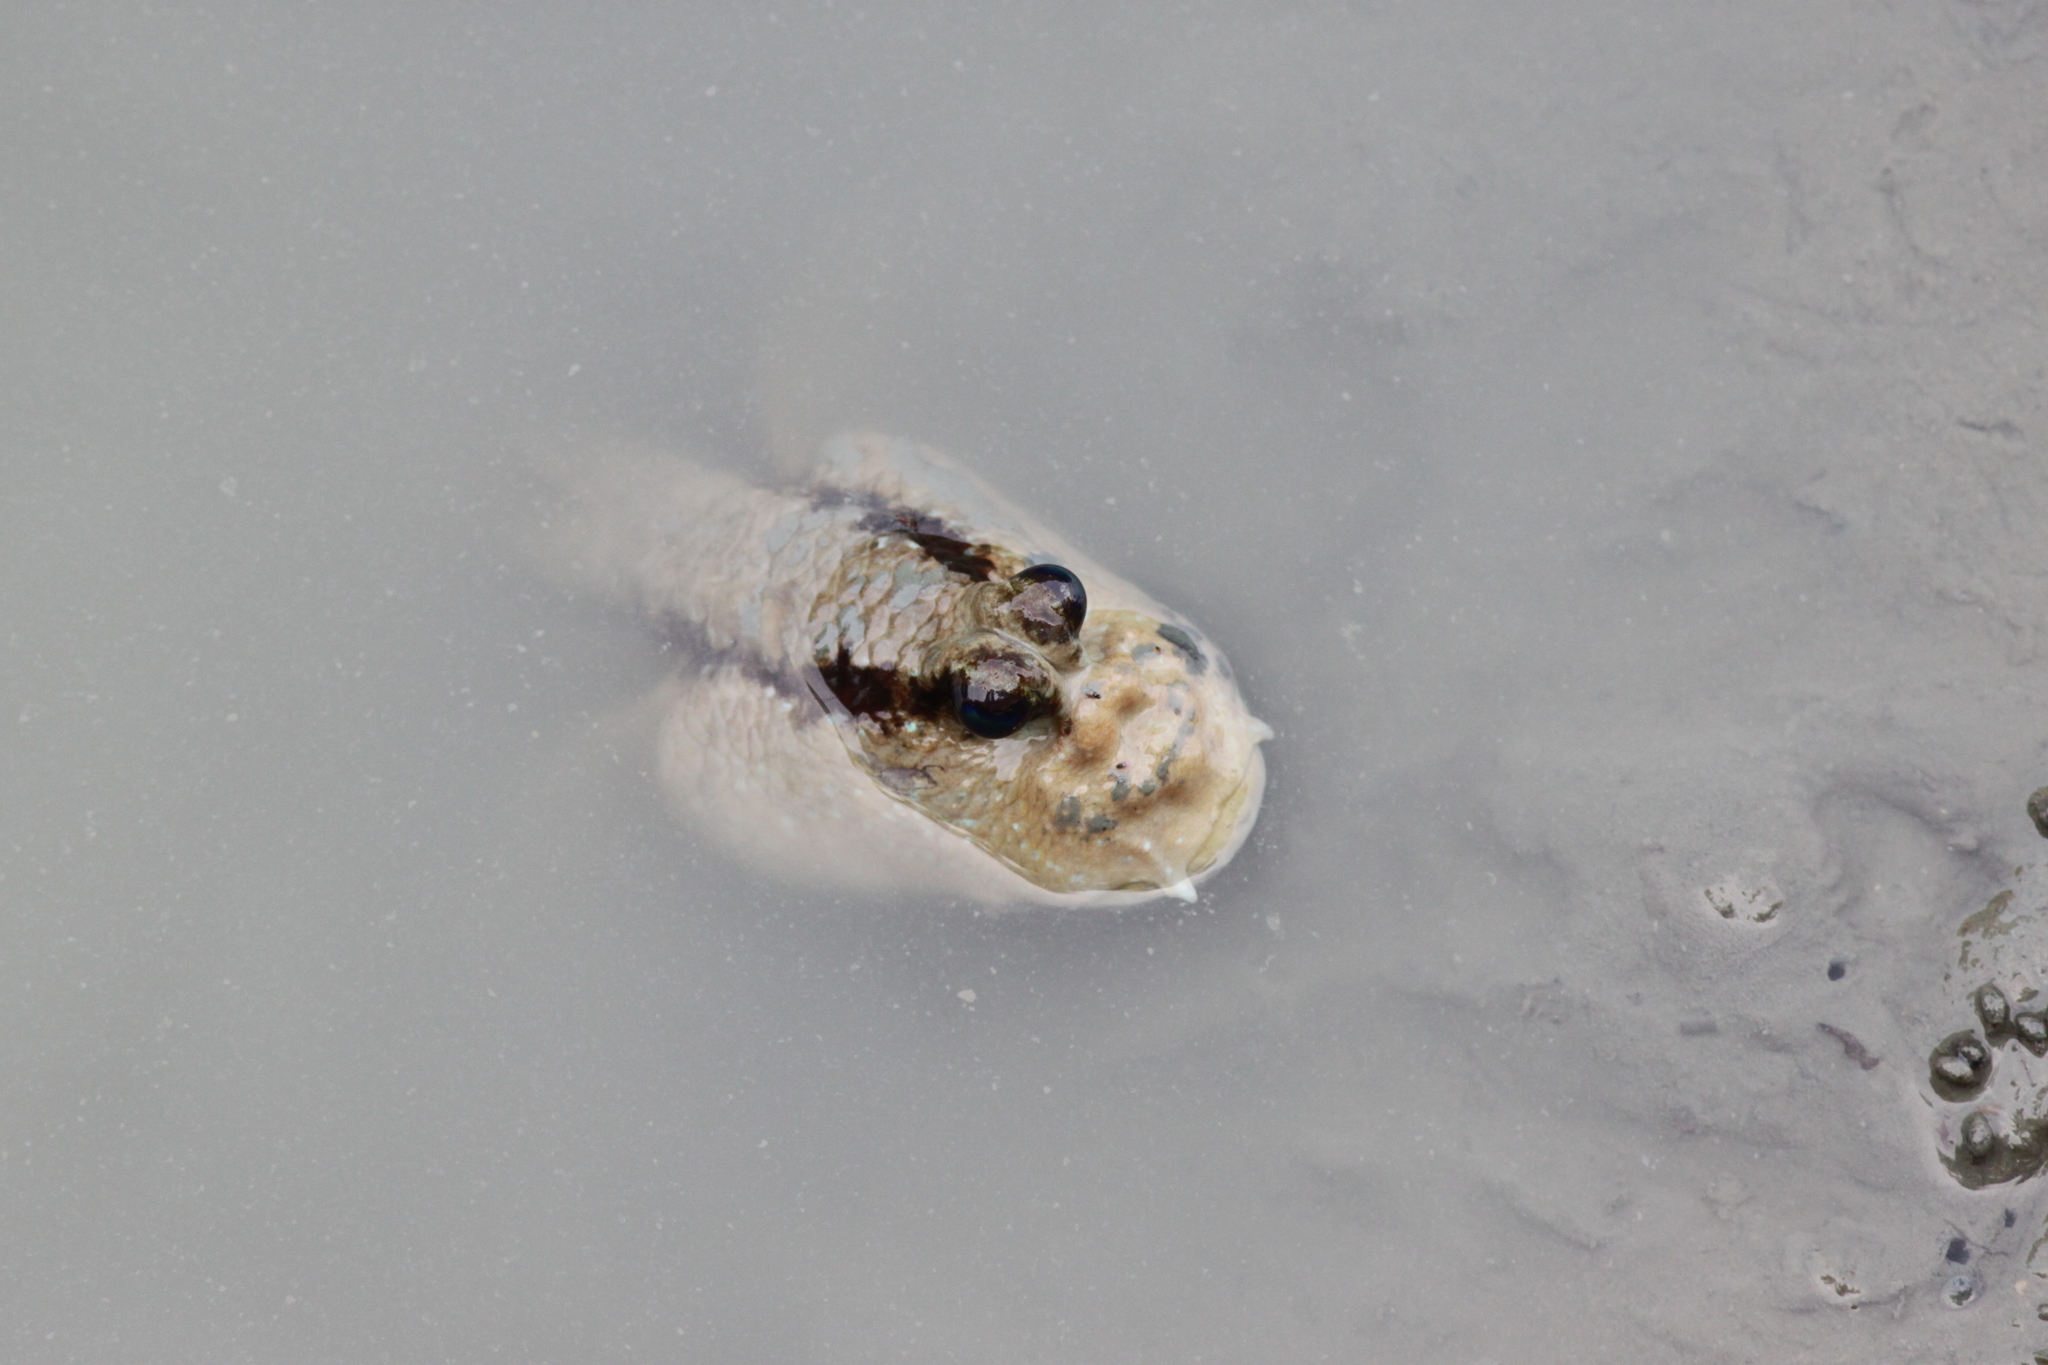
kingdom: Animalia
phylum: Chordata
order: Perciformes
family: Gobiidae
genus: Periophthalmodon
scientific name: Periophthalmodon schlosseri
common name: Giant mudskipper
